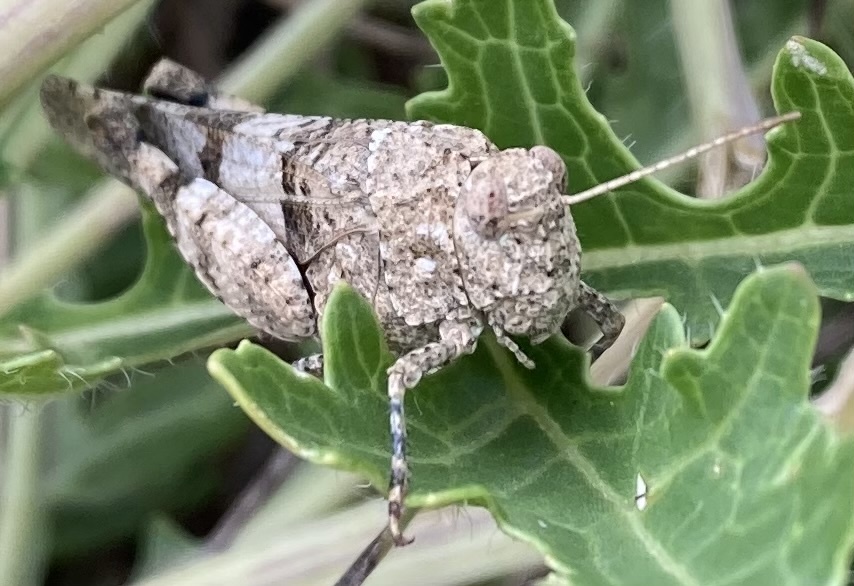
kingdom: Animalia
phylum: Arthropoda
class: Insecta
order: Orthoptera
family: Acrididae
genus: Oedipoda
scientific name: Oedipoda caerulescens
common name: Blue-winged grasshopper
